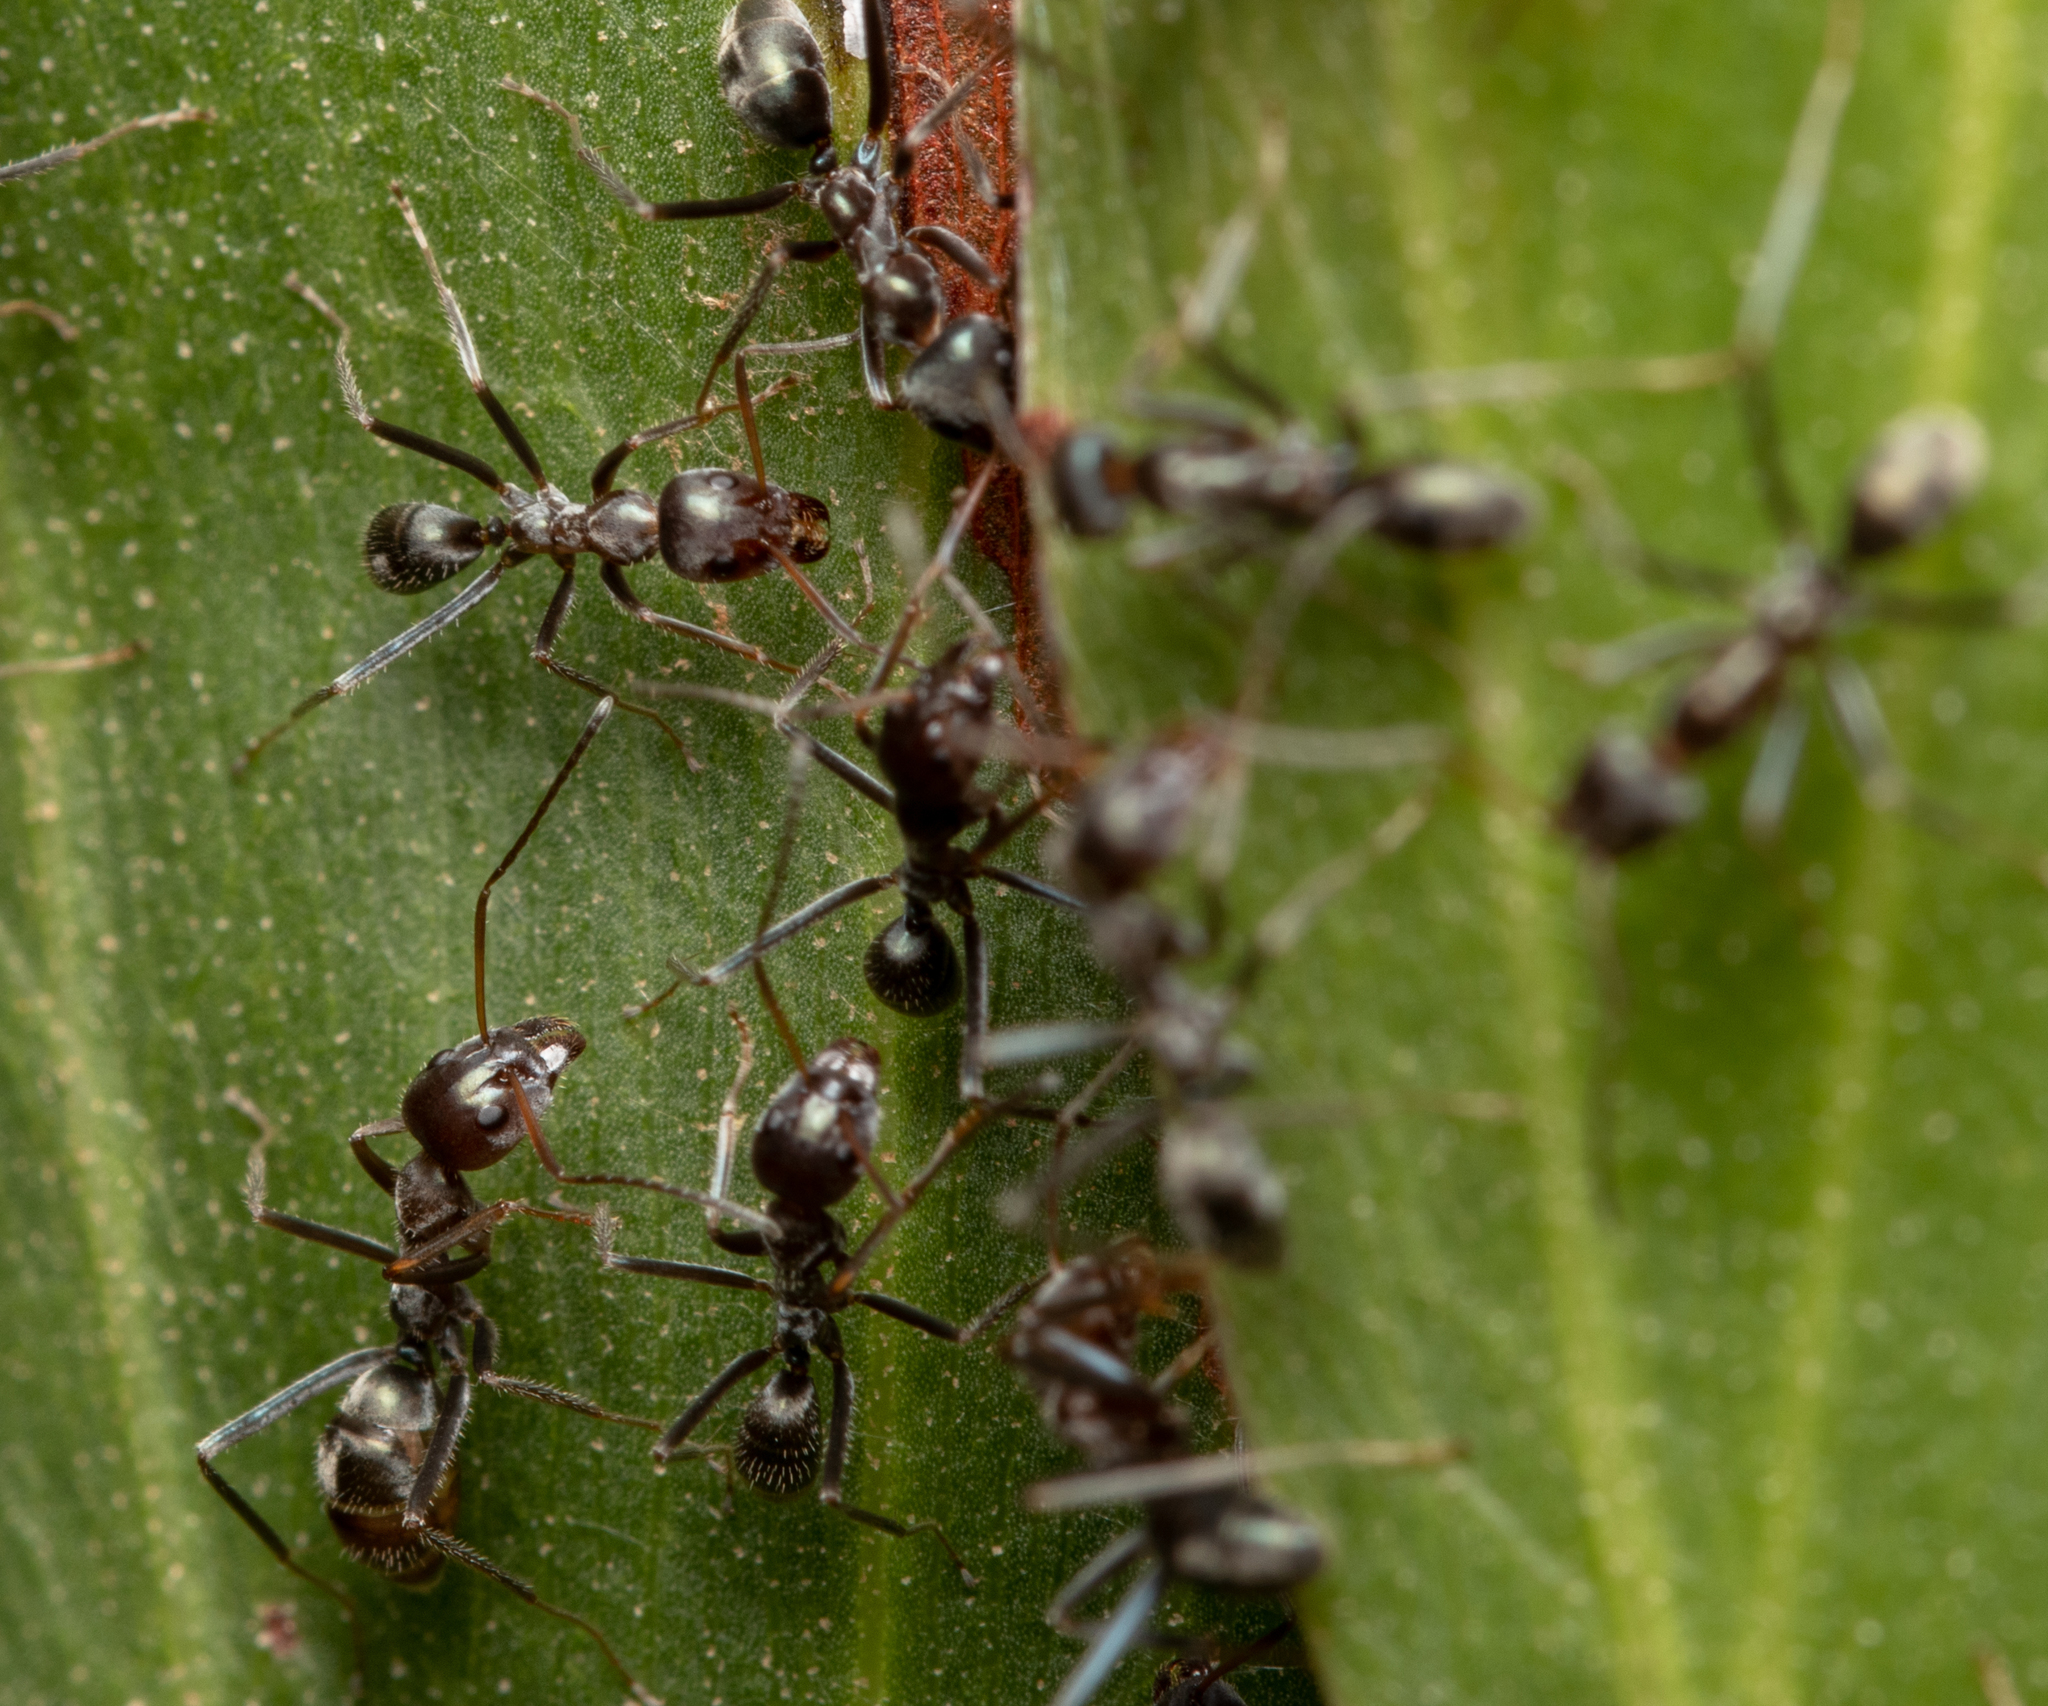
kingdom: Animalia
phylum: Arthropoda
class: Insecta
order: Hymenoptera
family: Formicidae
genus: Iridomyrmex
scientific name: Iridomyrmex
